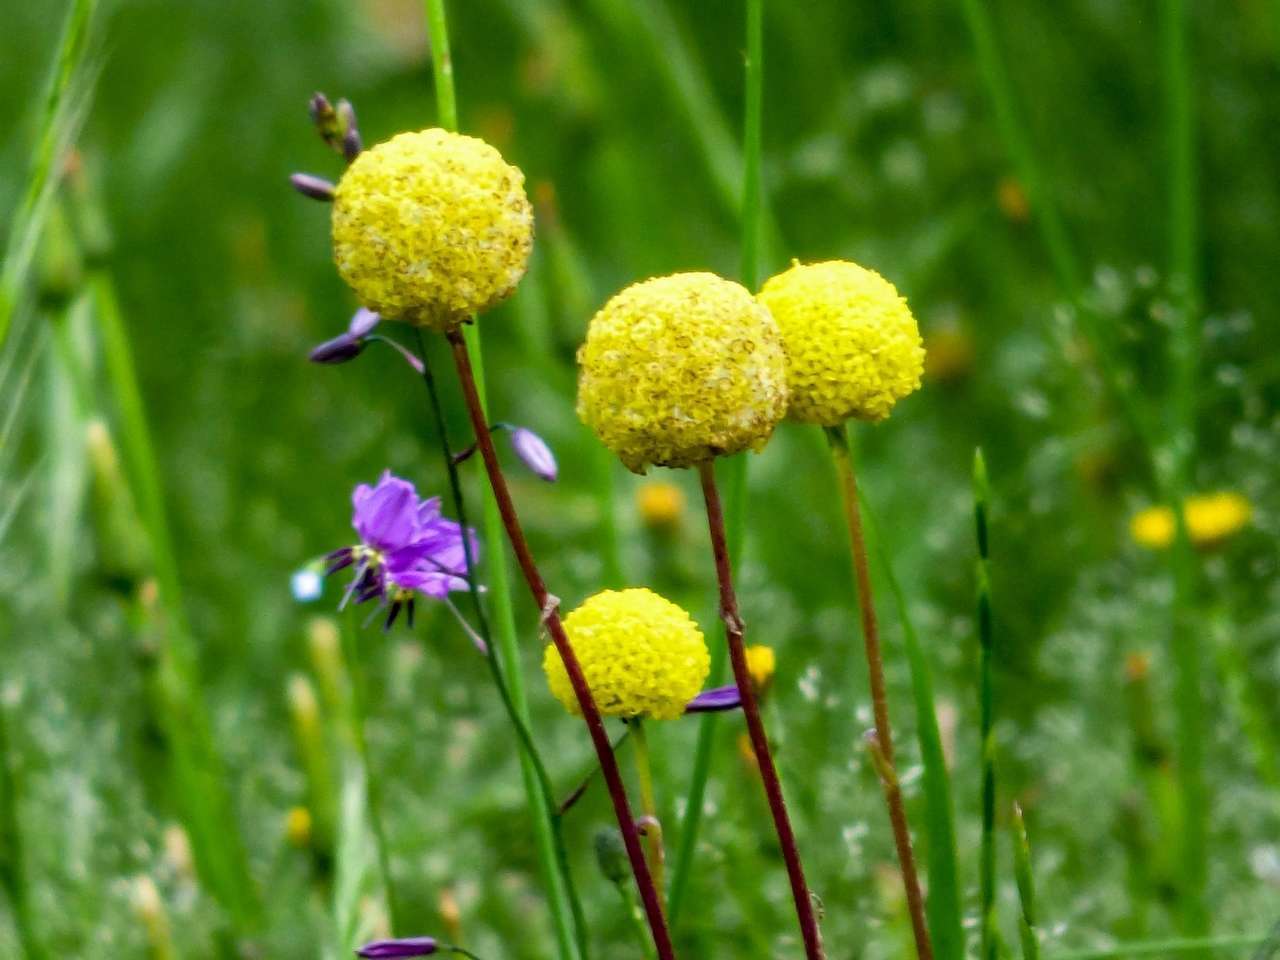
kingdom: Plantae
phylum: Tracheophyta
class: Magnoliopsida
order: Asterales
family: Asteraceae
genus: Pycnosorus
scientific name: Pycnosorus globosus
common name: Drumsticks
